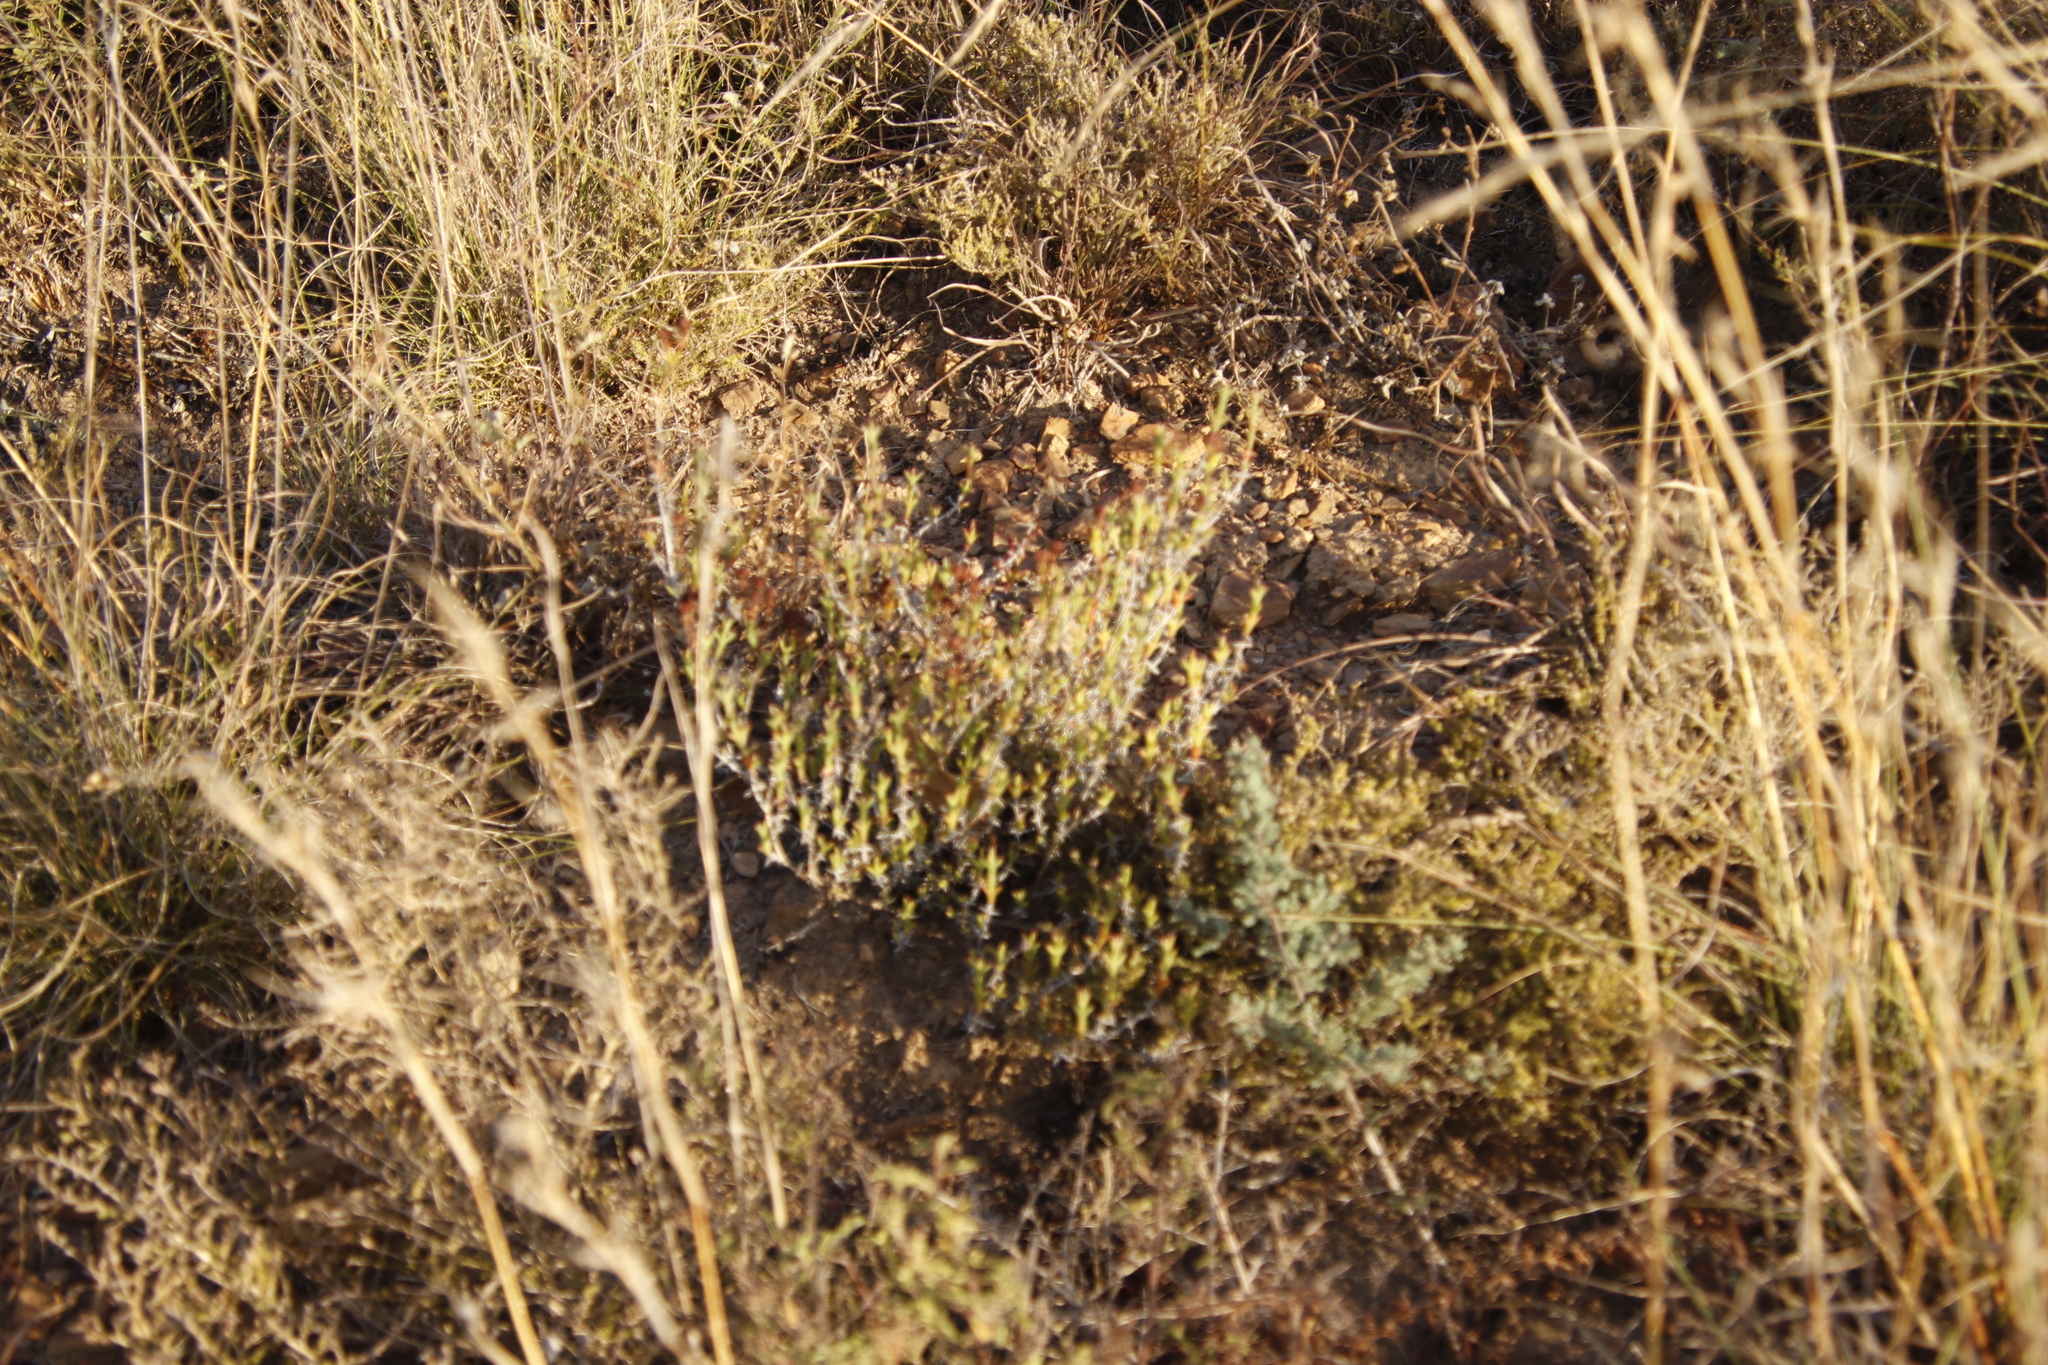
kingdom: Plantae
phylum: Tracheophyta
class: Magnoliopsida
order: Caryophyllales
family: Aizoaceae
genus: Ruschia
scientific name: Ruschia tenella
